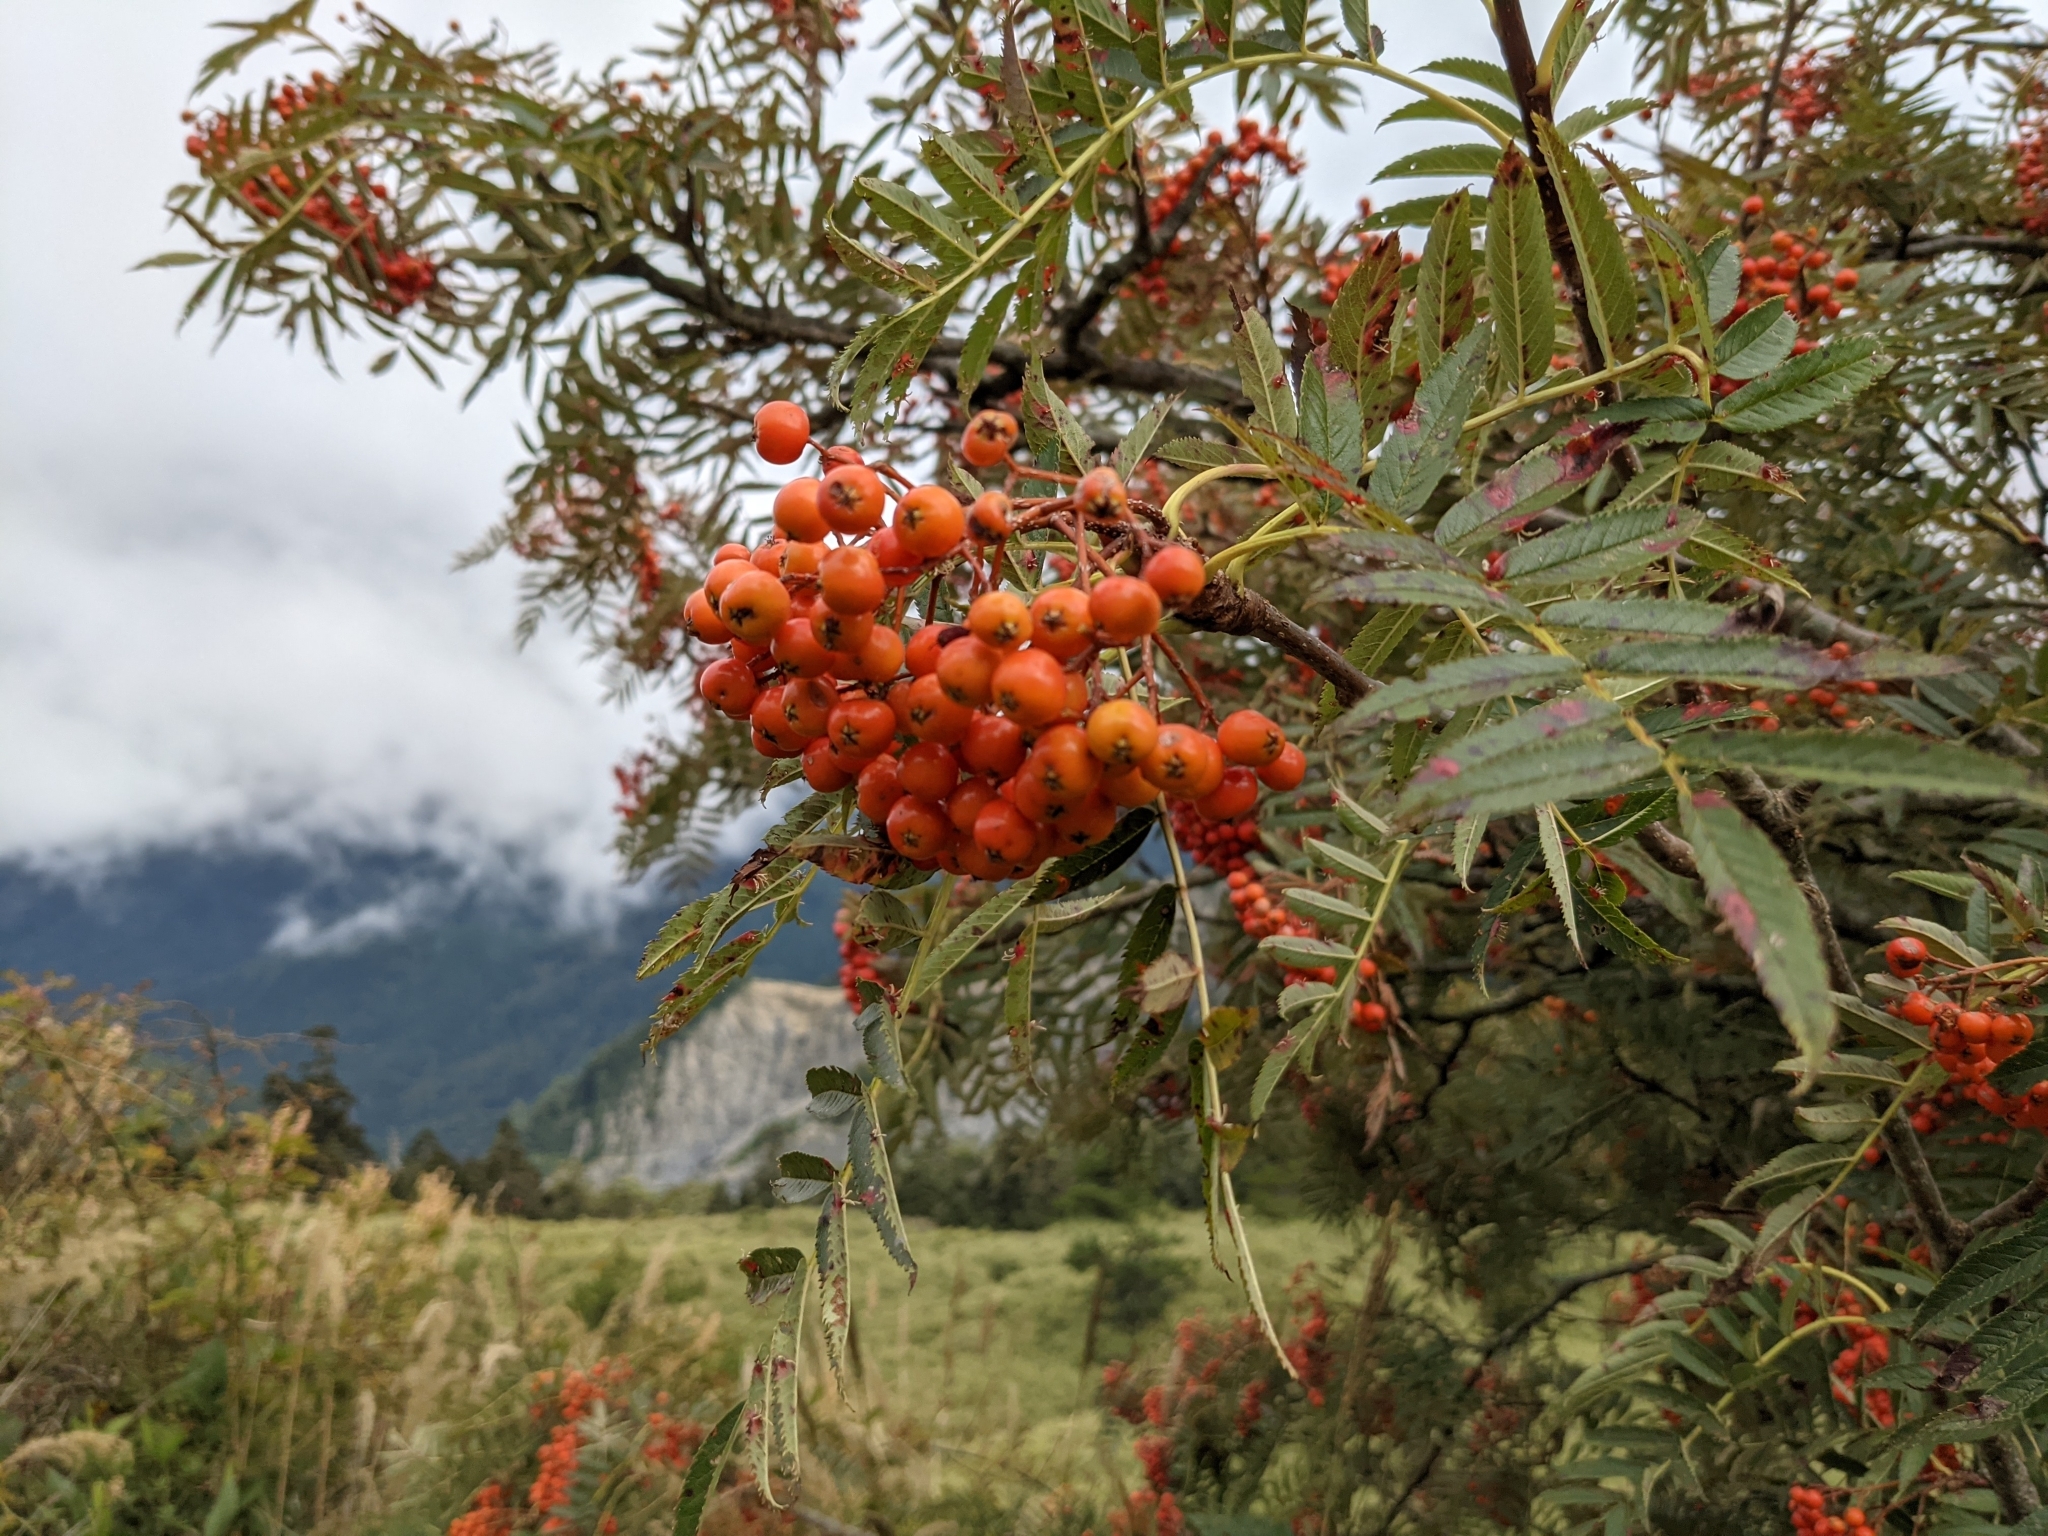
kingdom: Plantae
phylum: Tracheophyta
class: Magnoliopsida
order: Rosales
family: Rosaceae
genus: Sorbus
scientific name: Sorbus randaiensis
